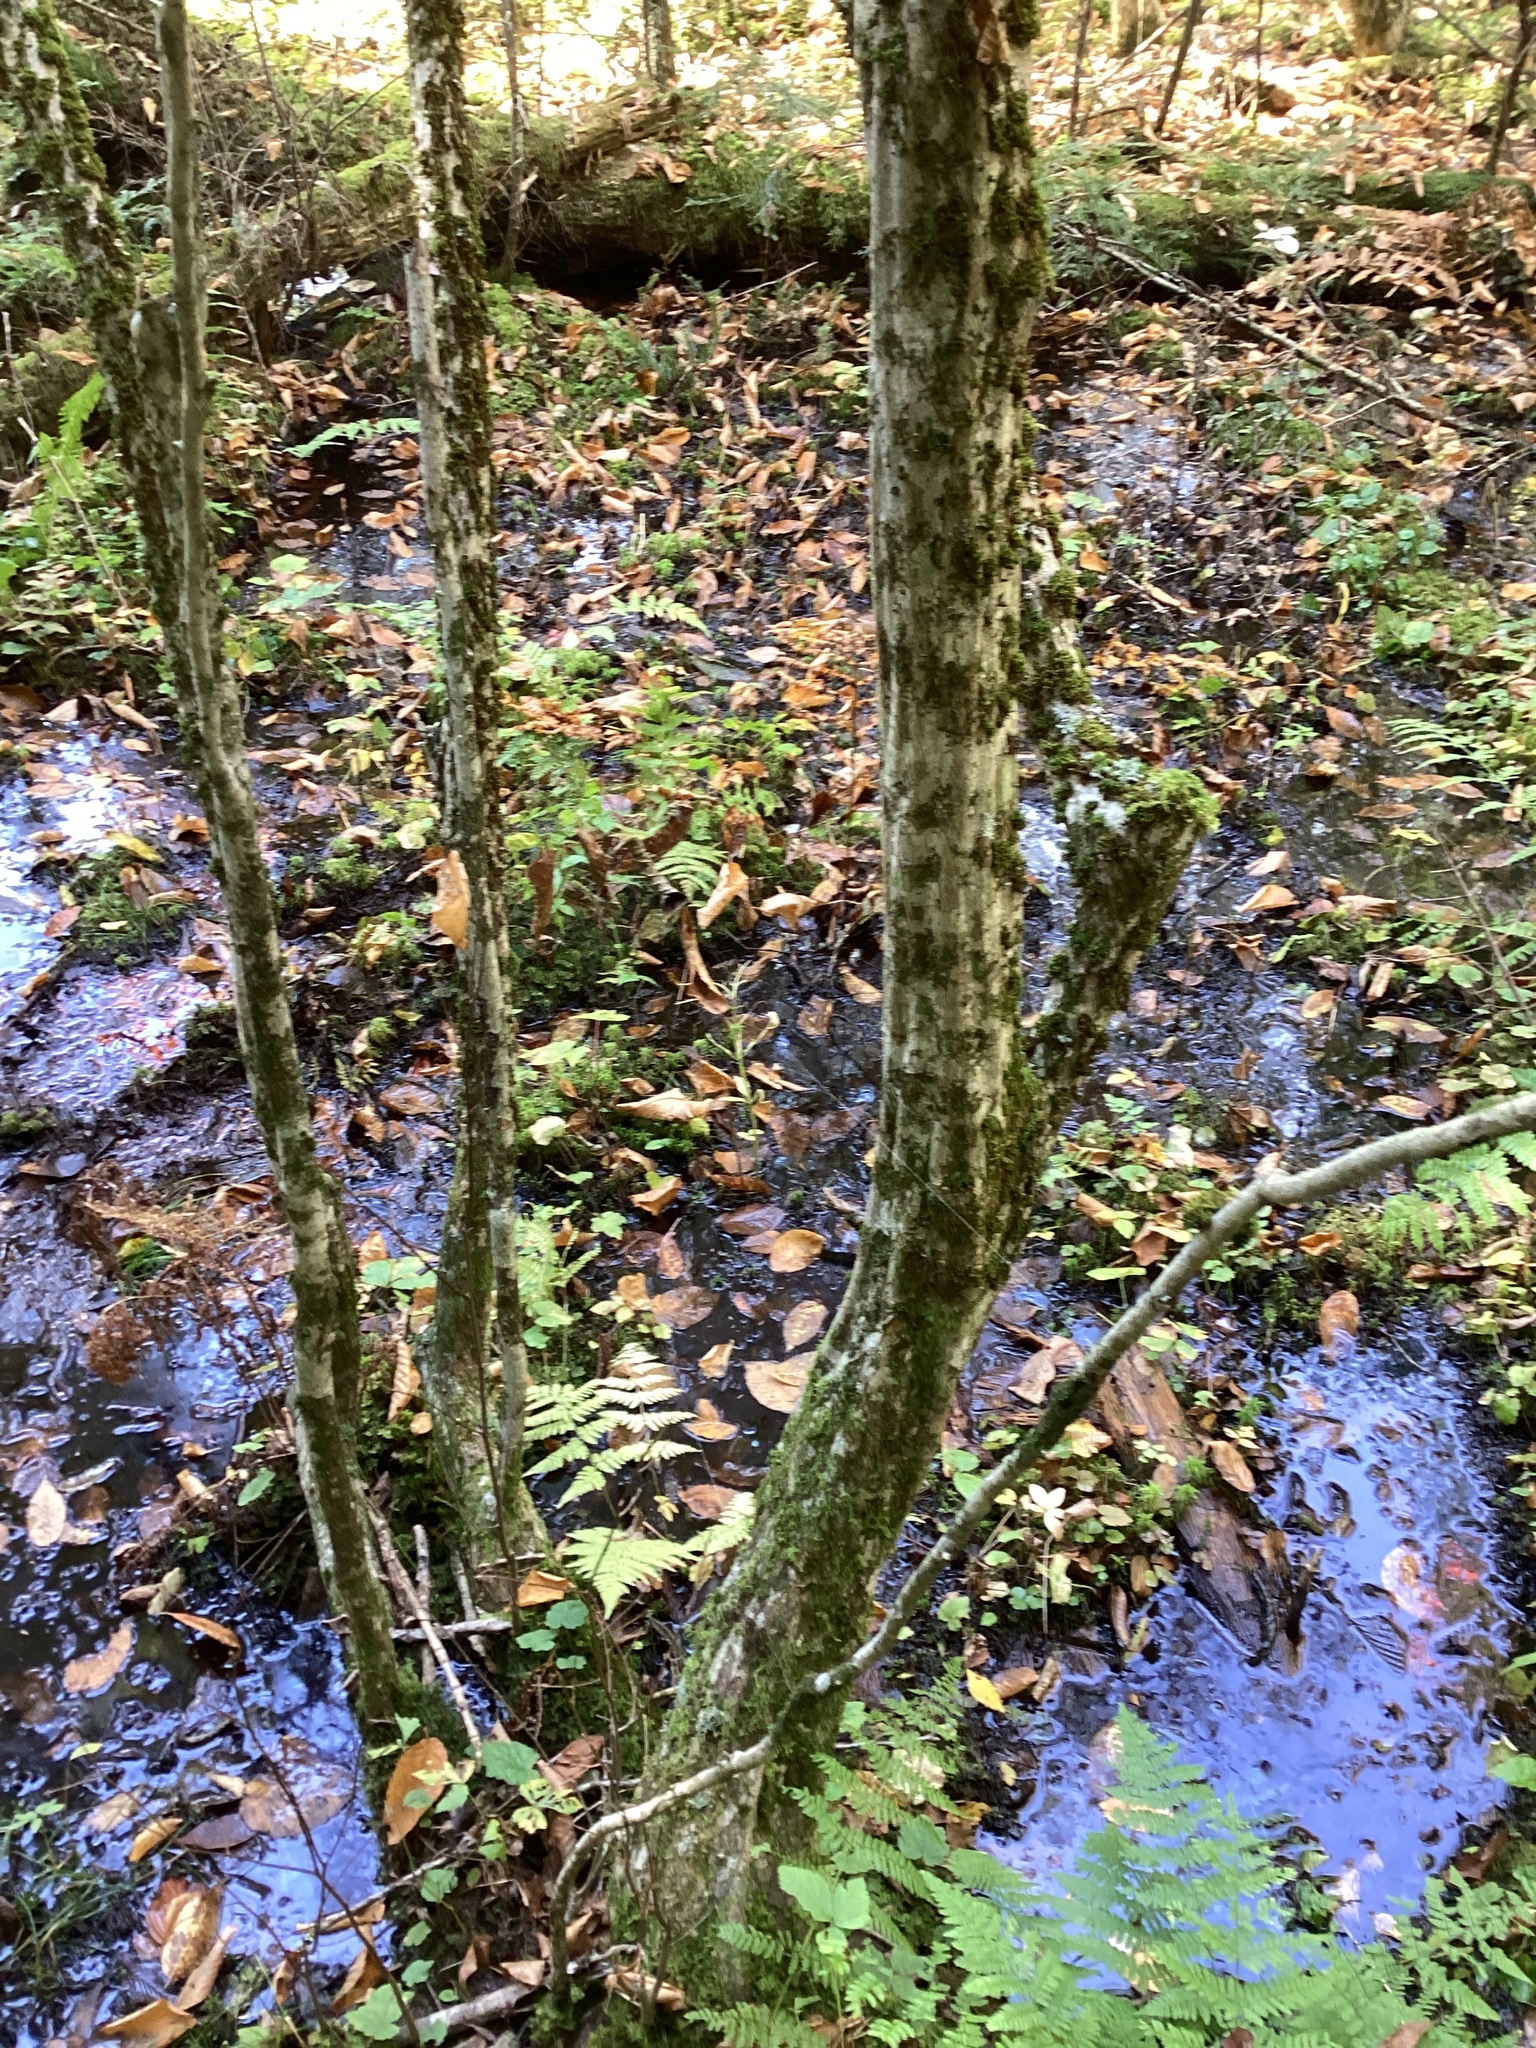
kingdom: Plantae
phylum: Tracheophyta
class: Magnoliopsida
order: Fagales
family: Betulaceae
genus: Carpinus
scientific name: Carpinus caroliniana
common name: American hornbeam
